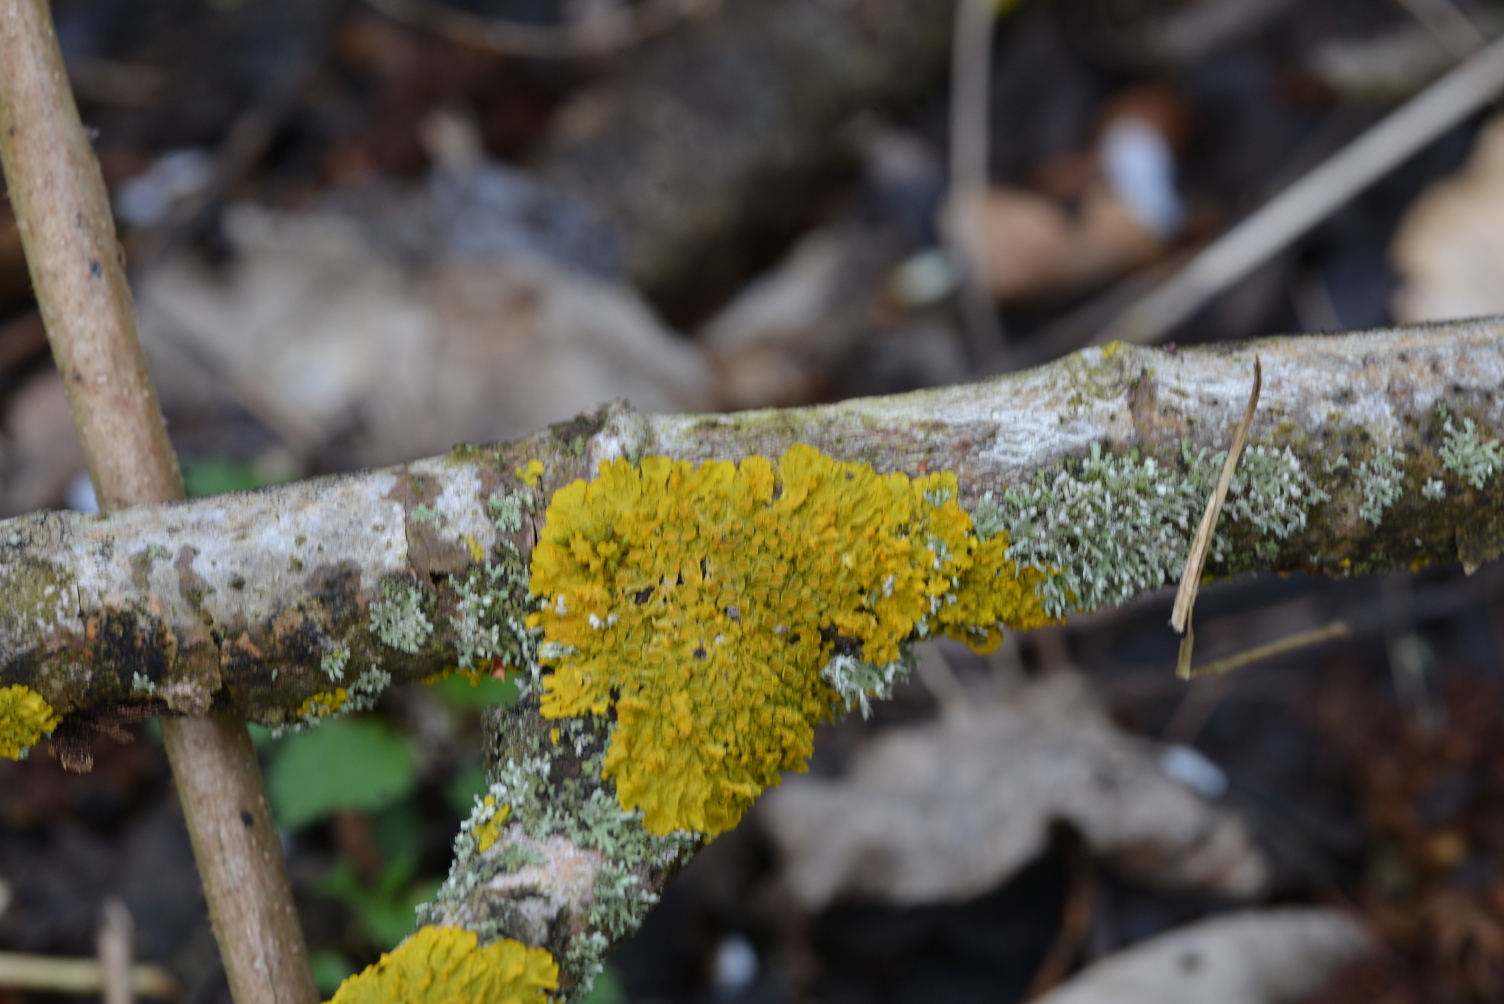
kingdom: Fungi
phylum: Ascomycota
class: Lecanoromycetes
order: Teloschistales
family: Teloschistaceae
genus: Xanthoria
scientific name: Xanthoria parietina
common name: Common orange lichen
